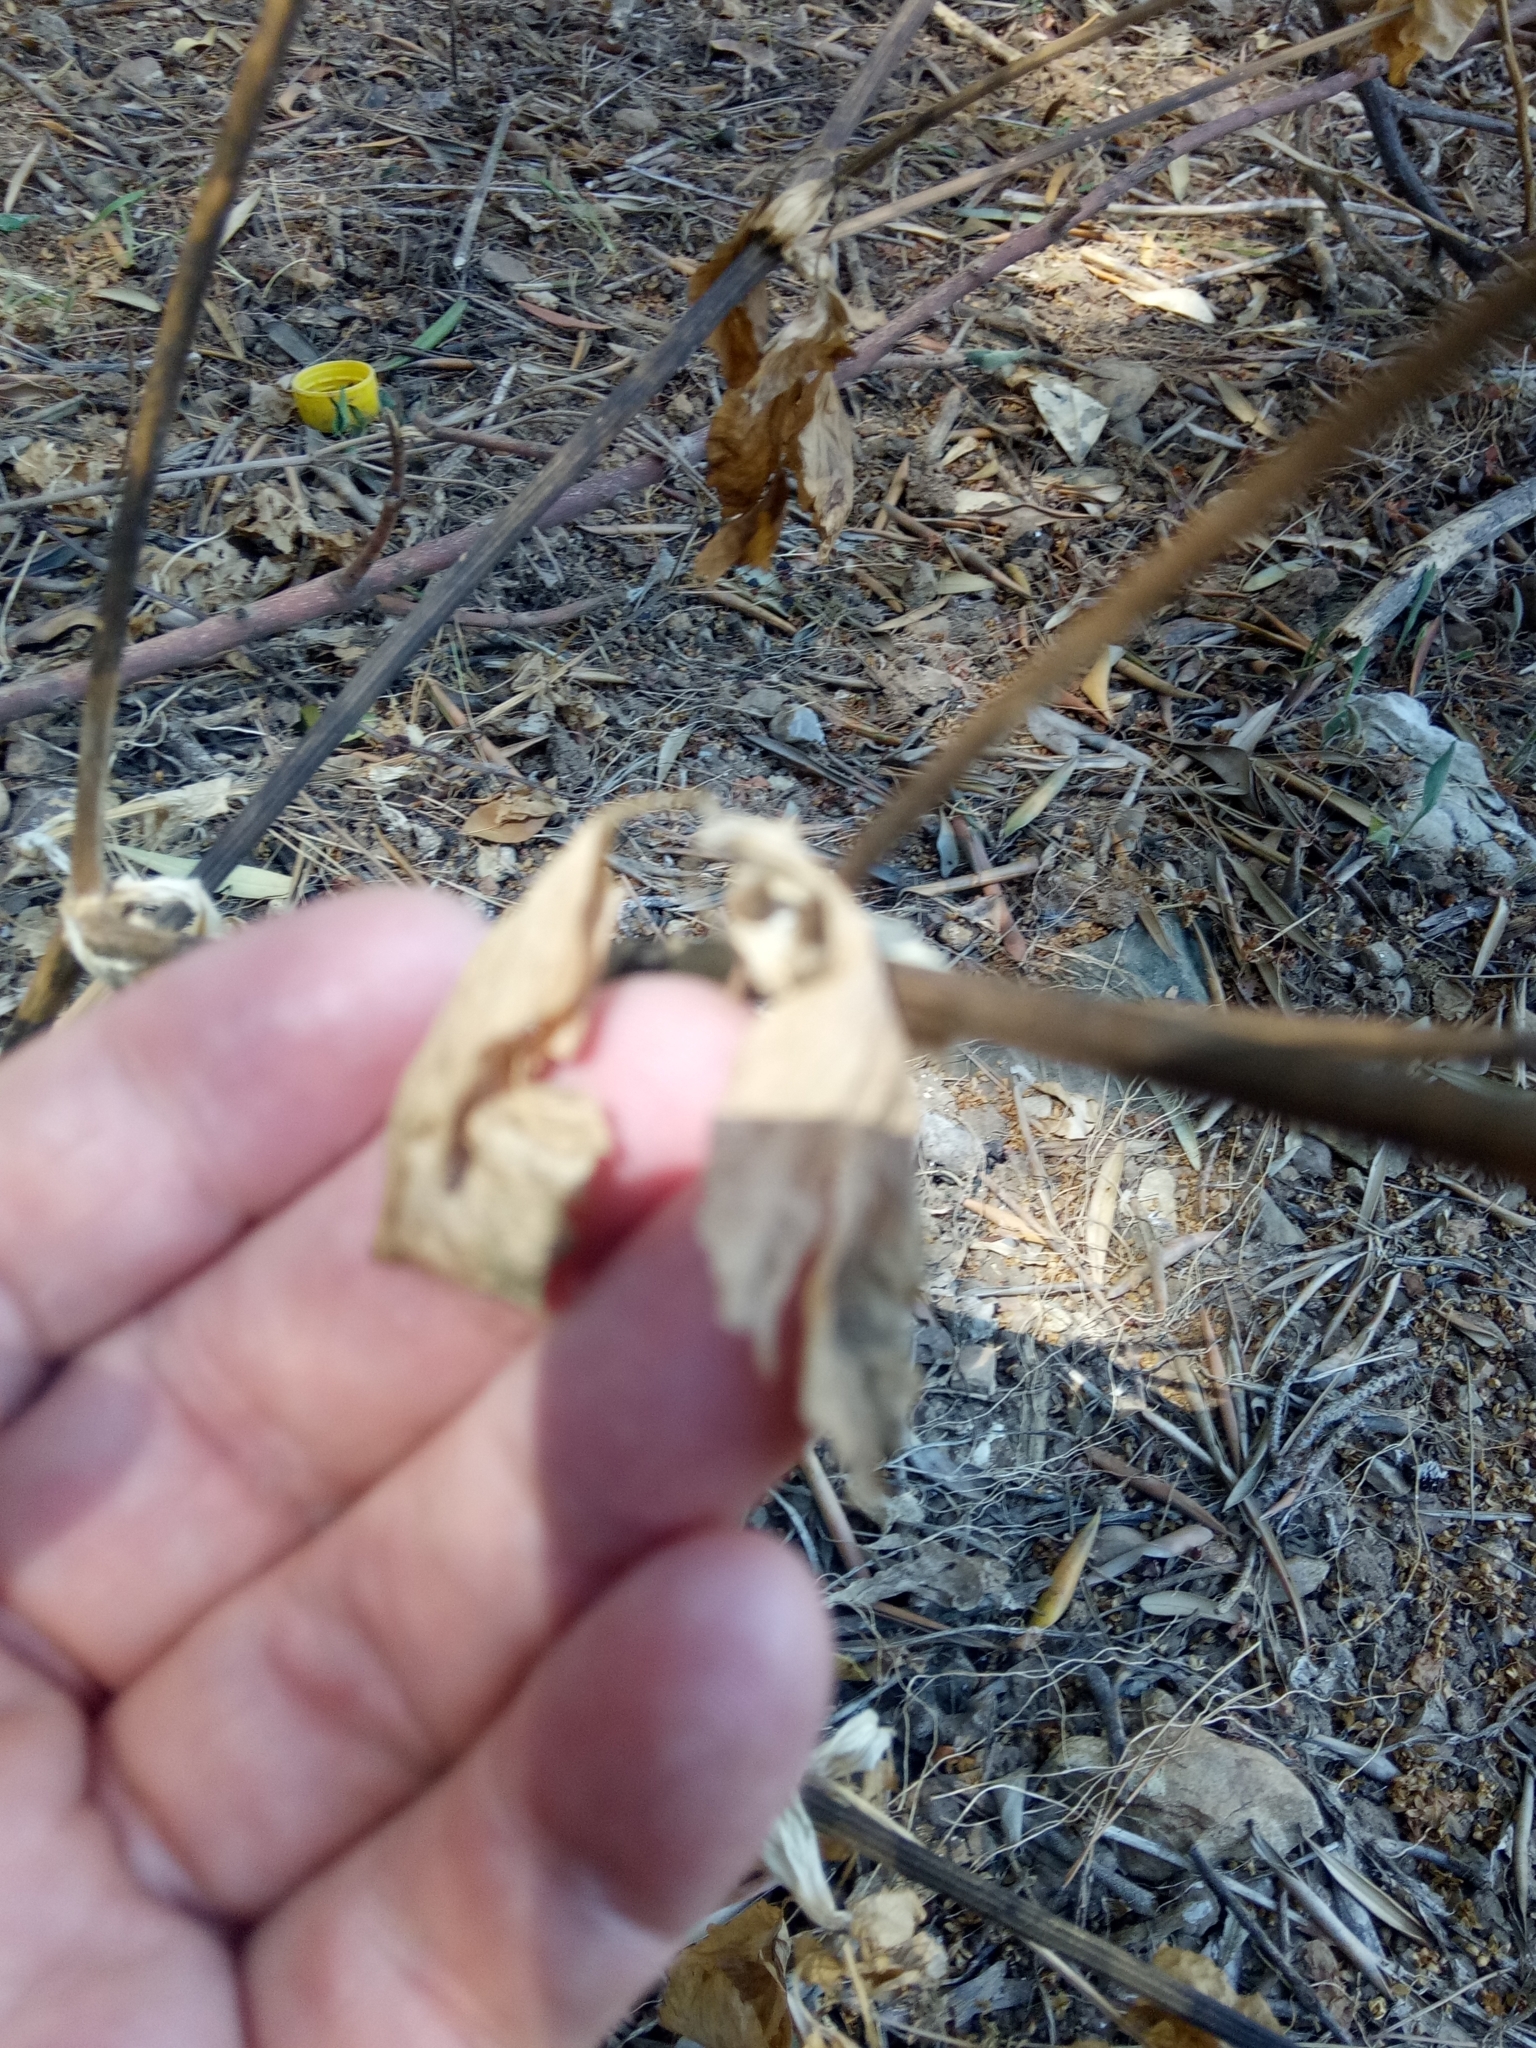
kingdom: Plantae
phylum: Tracheophyta
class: Magnoliopsida
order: Apiales
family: Apiaceae
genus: Smyrnium
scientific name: Smyrnium olusatrum
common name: Alexanders
